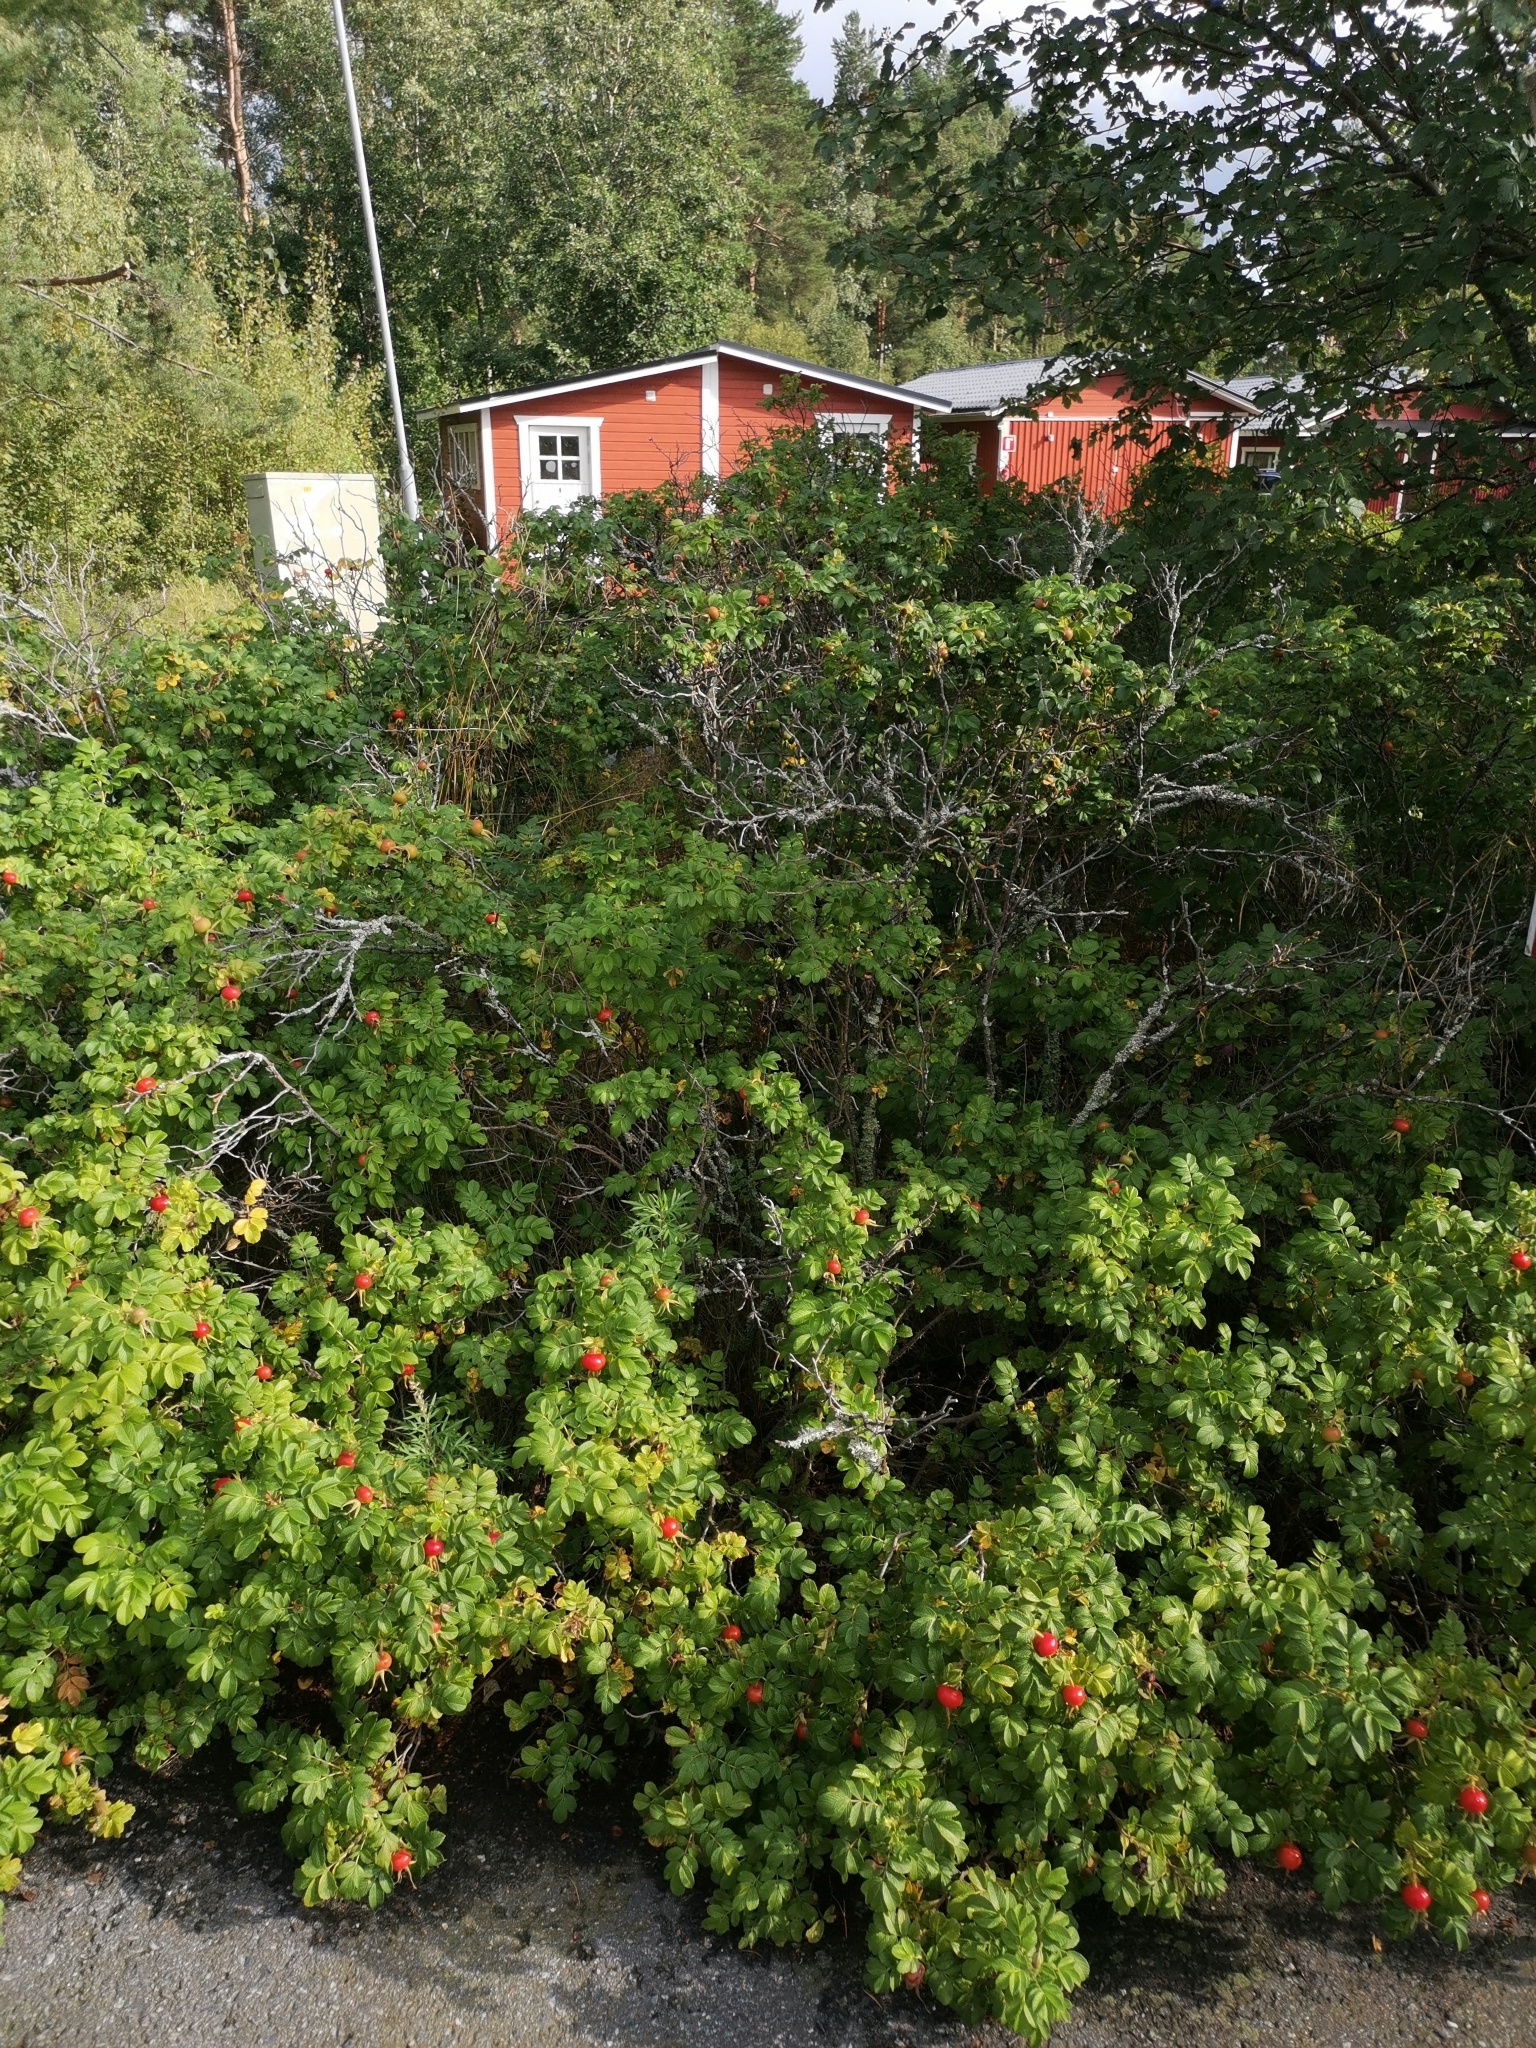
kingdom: Plantae
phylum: Tracheophyta
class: Magnoliopsida
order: Rosales
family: Rosaceae
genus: Rosa
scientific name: Rosa rugosa
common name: Japanese rose
